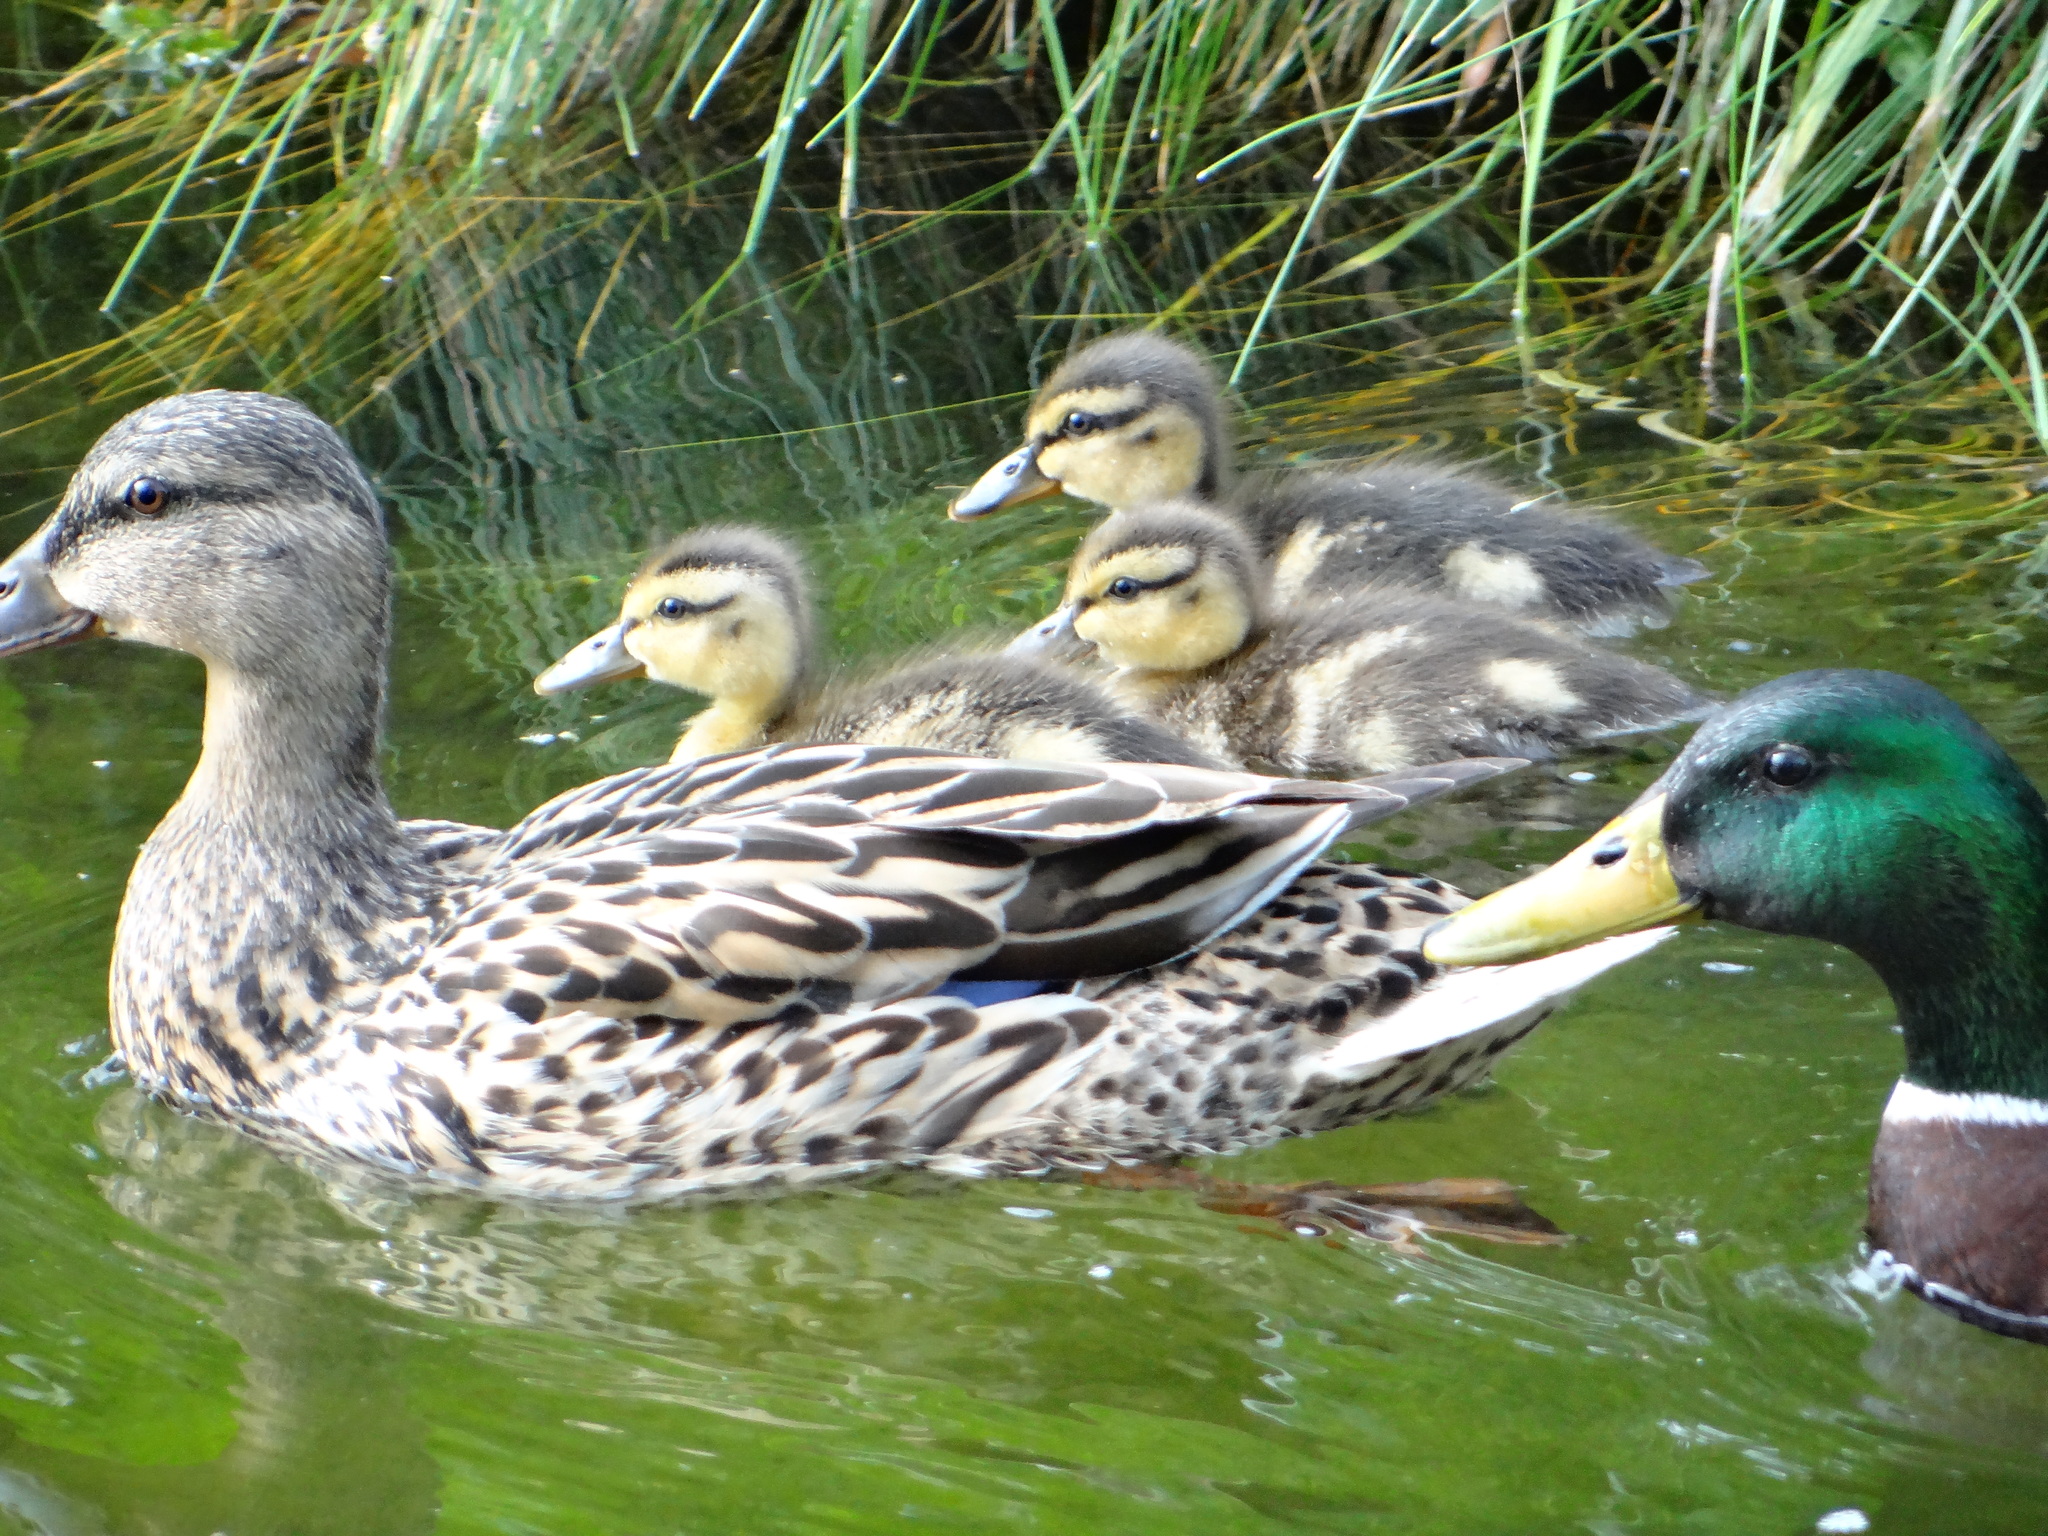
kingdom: Animalia
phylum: Chordata
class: Aves
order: Anseriformes
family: Anatidae
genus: Anas
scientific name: Anas platyrhynchos
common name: Mallard
